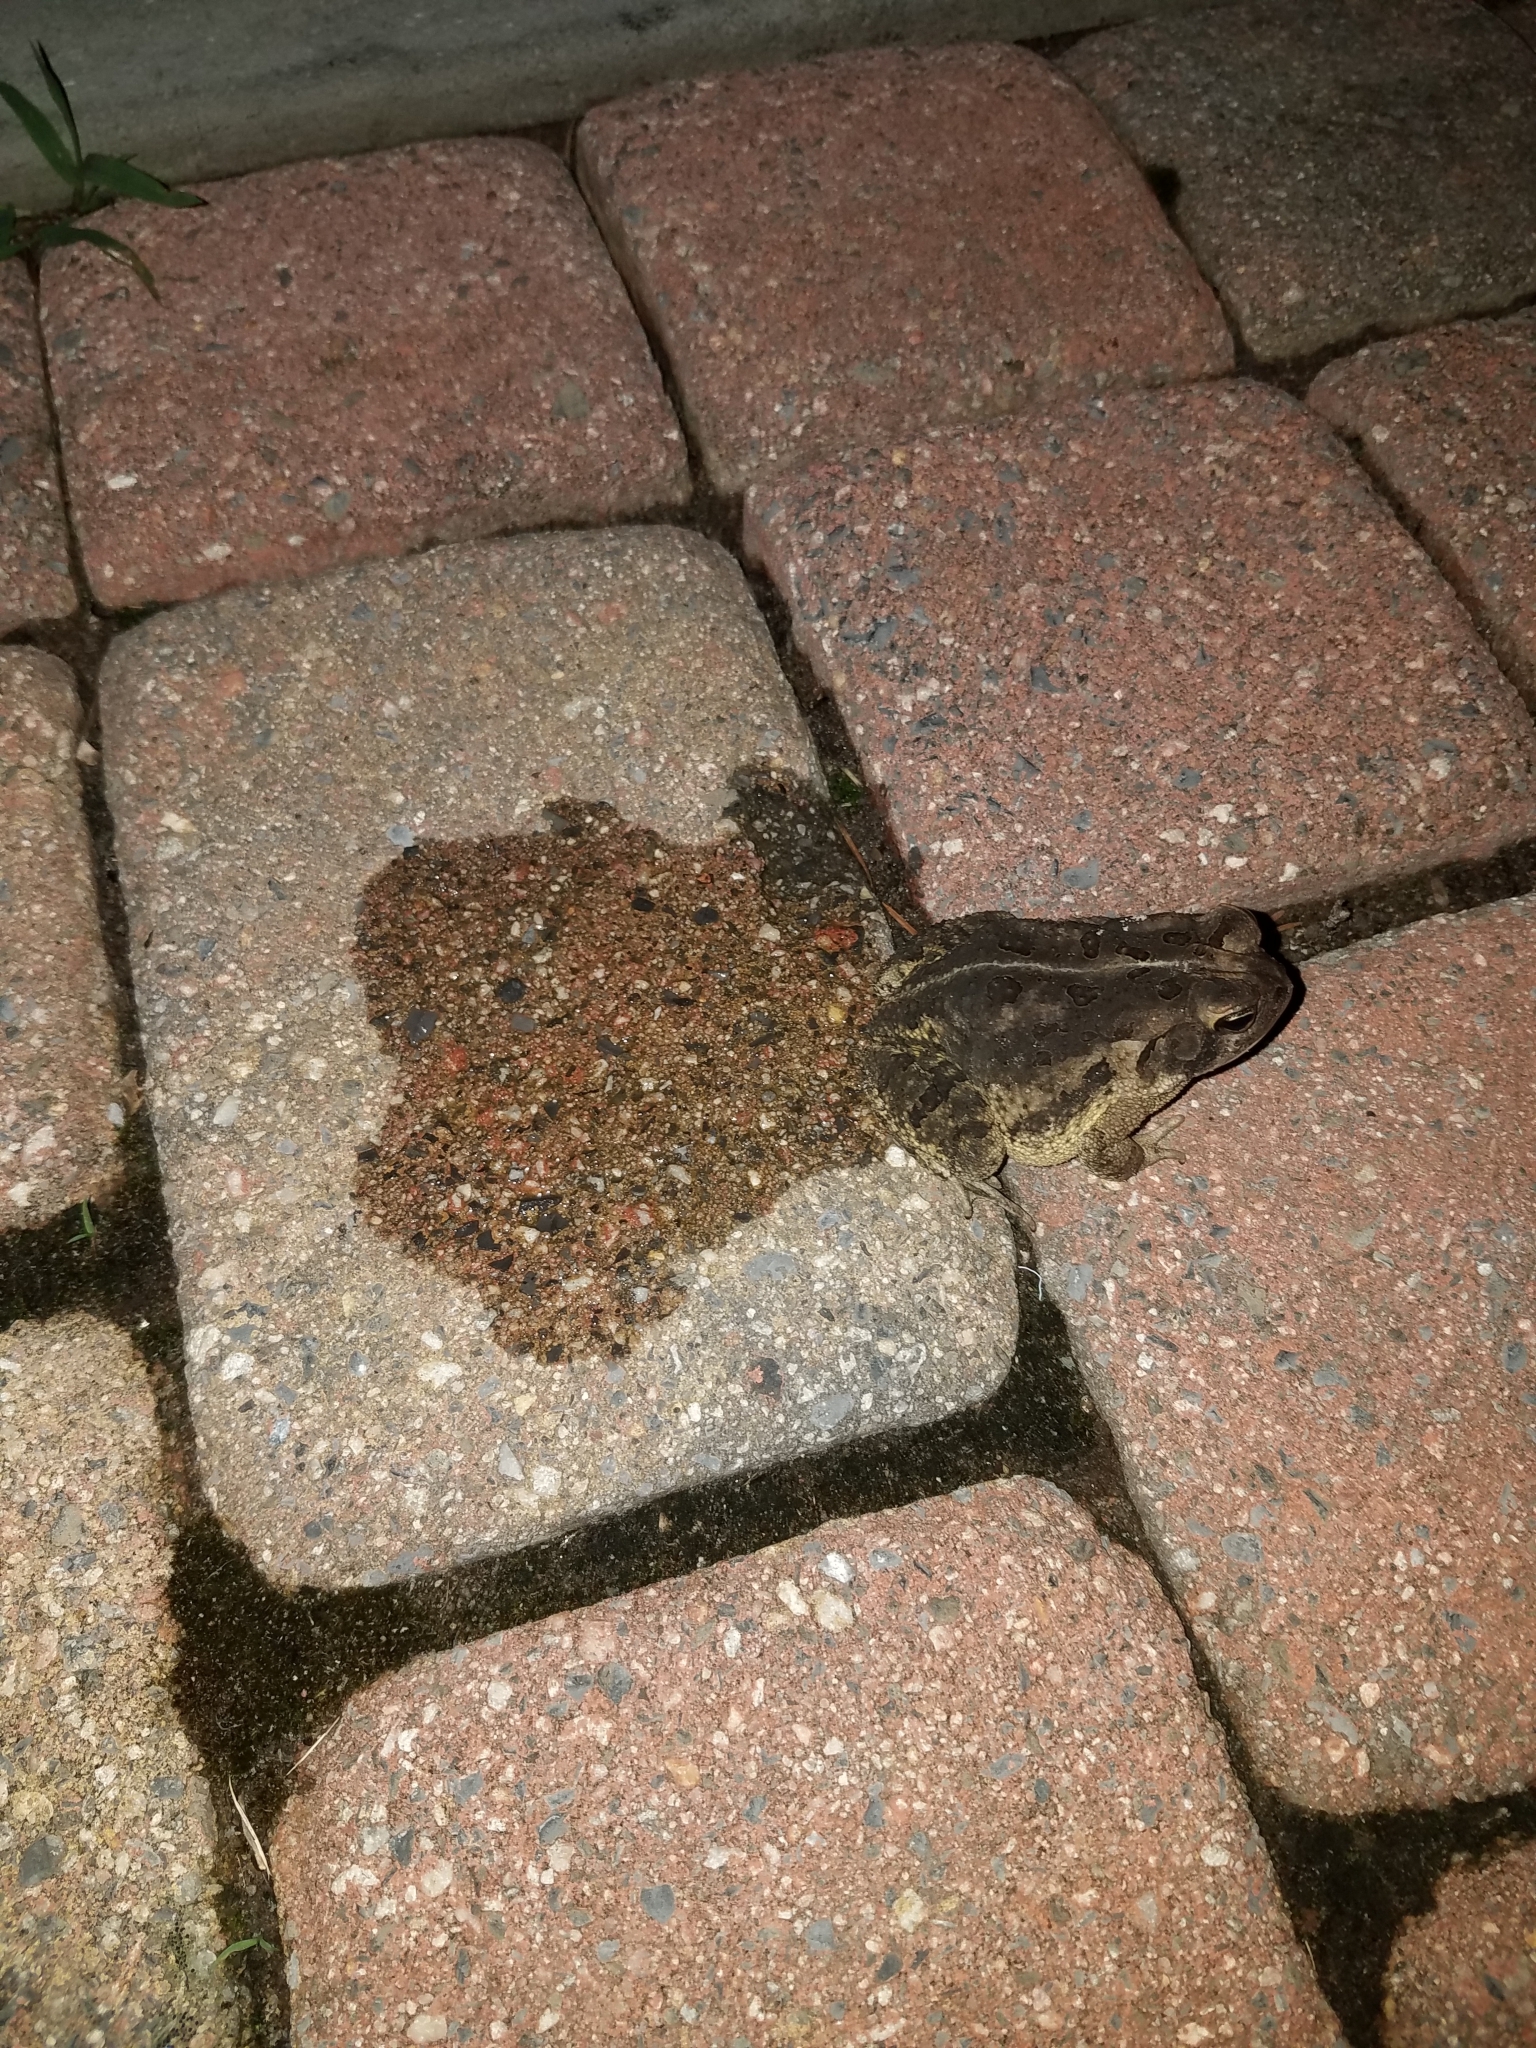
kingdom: Animalia
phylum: Chordata
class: Amphibia
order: Anura
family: Bufonidae
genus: Anaxyrus
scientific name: Anaxyrus fowleri
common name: Fowler's toad
